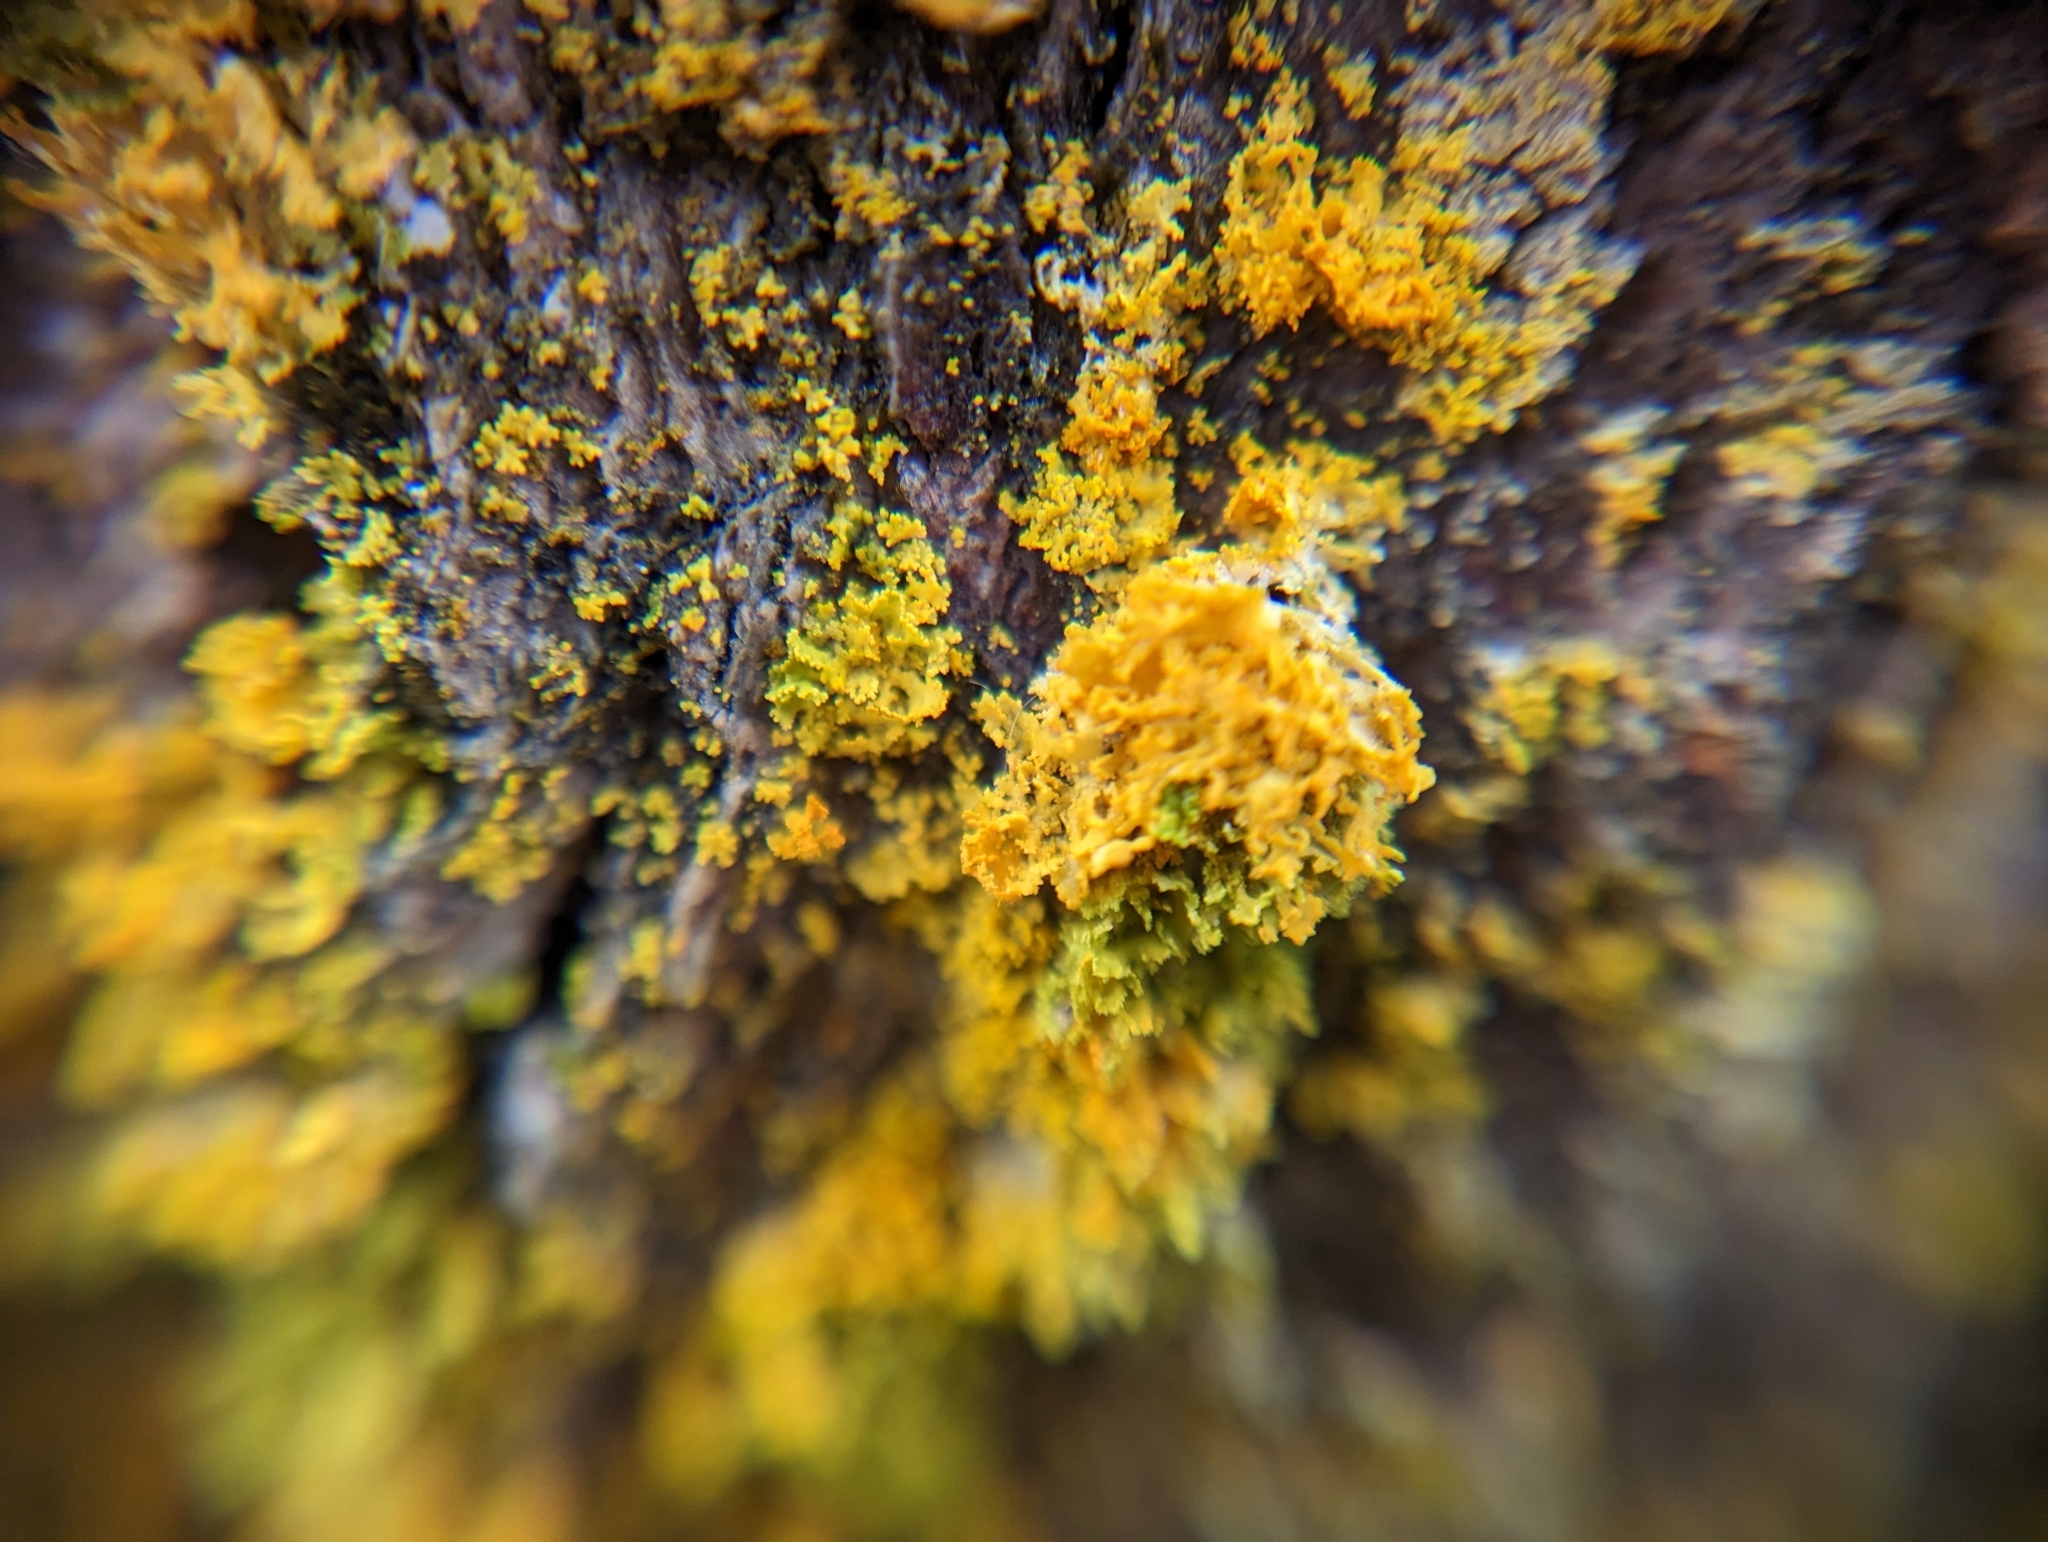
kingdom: Fungi
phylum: Ascomycota
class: Lecanoromycetes
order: Teloschistales
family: Teloschistaceae
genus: Polycauliona
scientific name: Polycauliona candelaria
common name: Shrubby sunburst lichen
